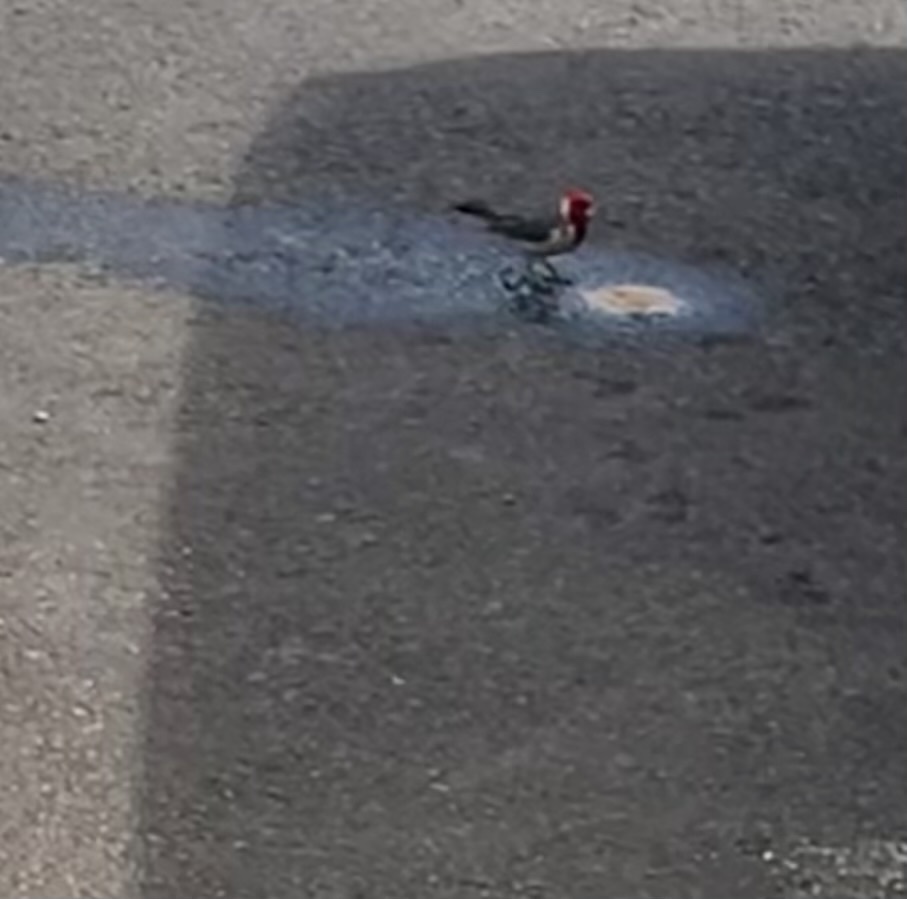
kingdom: Animalia
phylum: Chordata
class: Aves
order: Passeriformes
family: Thraupidae
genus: Paroaria
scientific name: Paroaria coronata
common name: Red-crested cardinal
